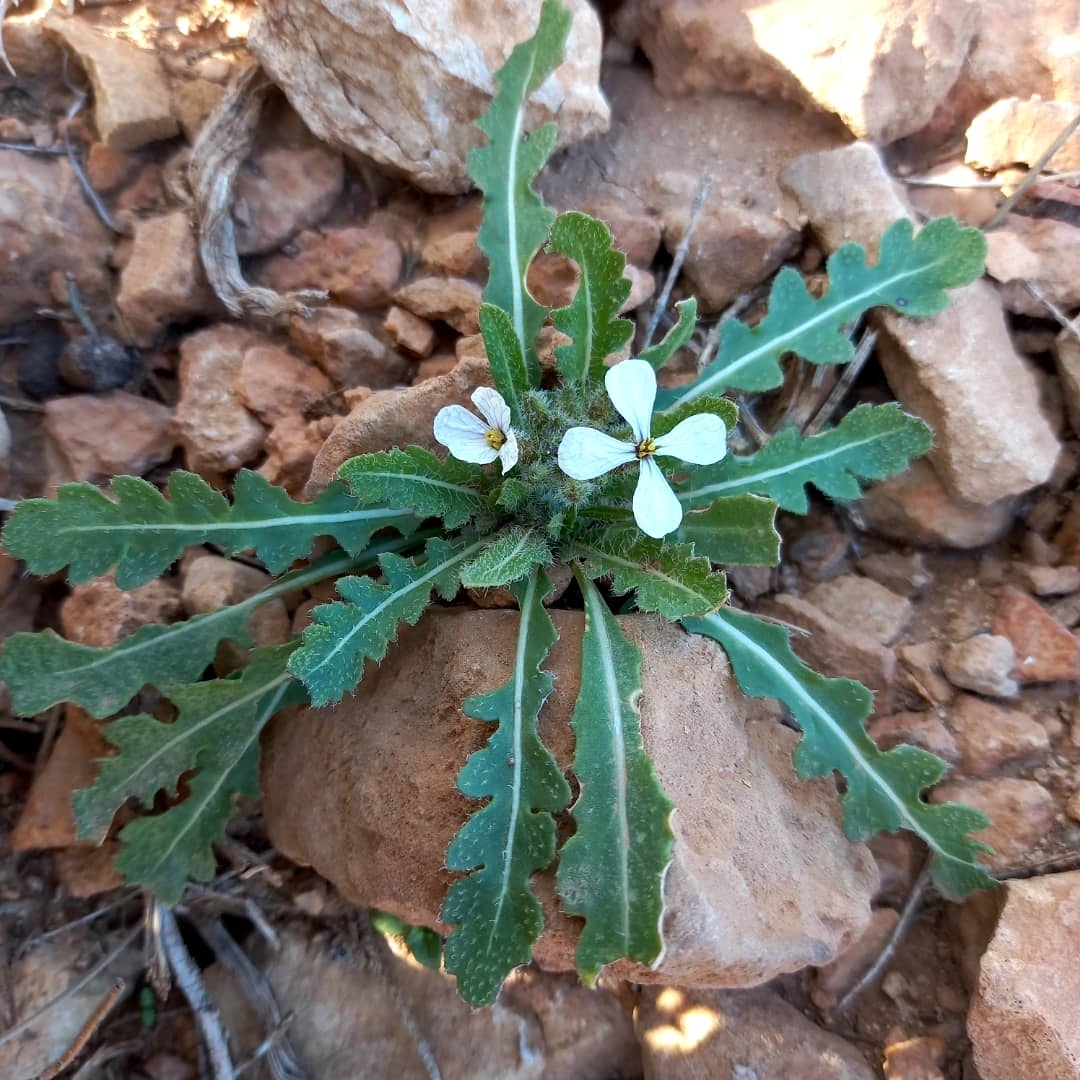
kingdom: Plantae
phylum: Tracheophyta
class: Magnoliopsida
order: Brassicales
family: Brassicaceae
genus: Eruca
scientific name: Eruca vesicaria
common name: Garden rocket
